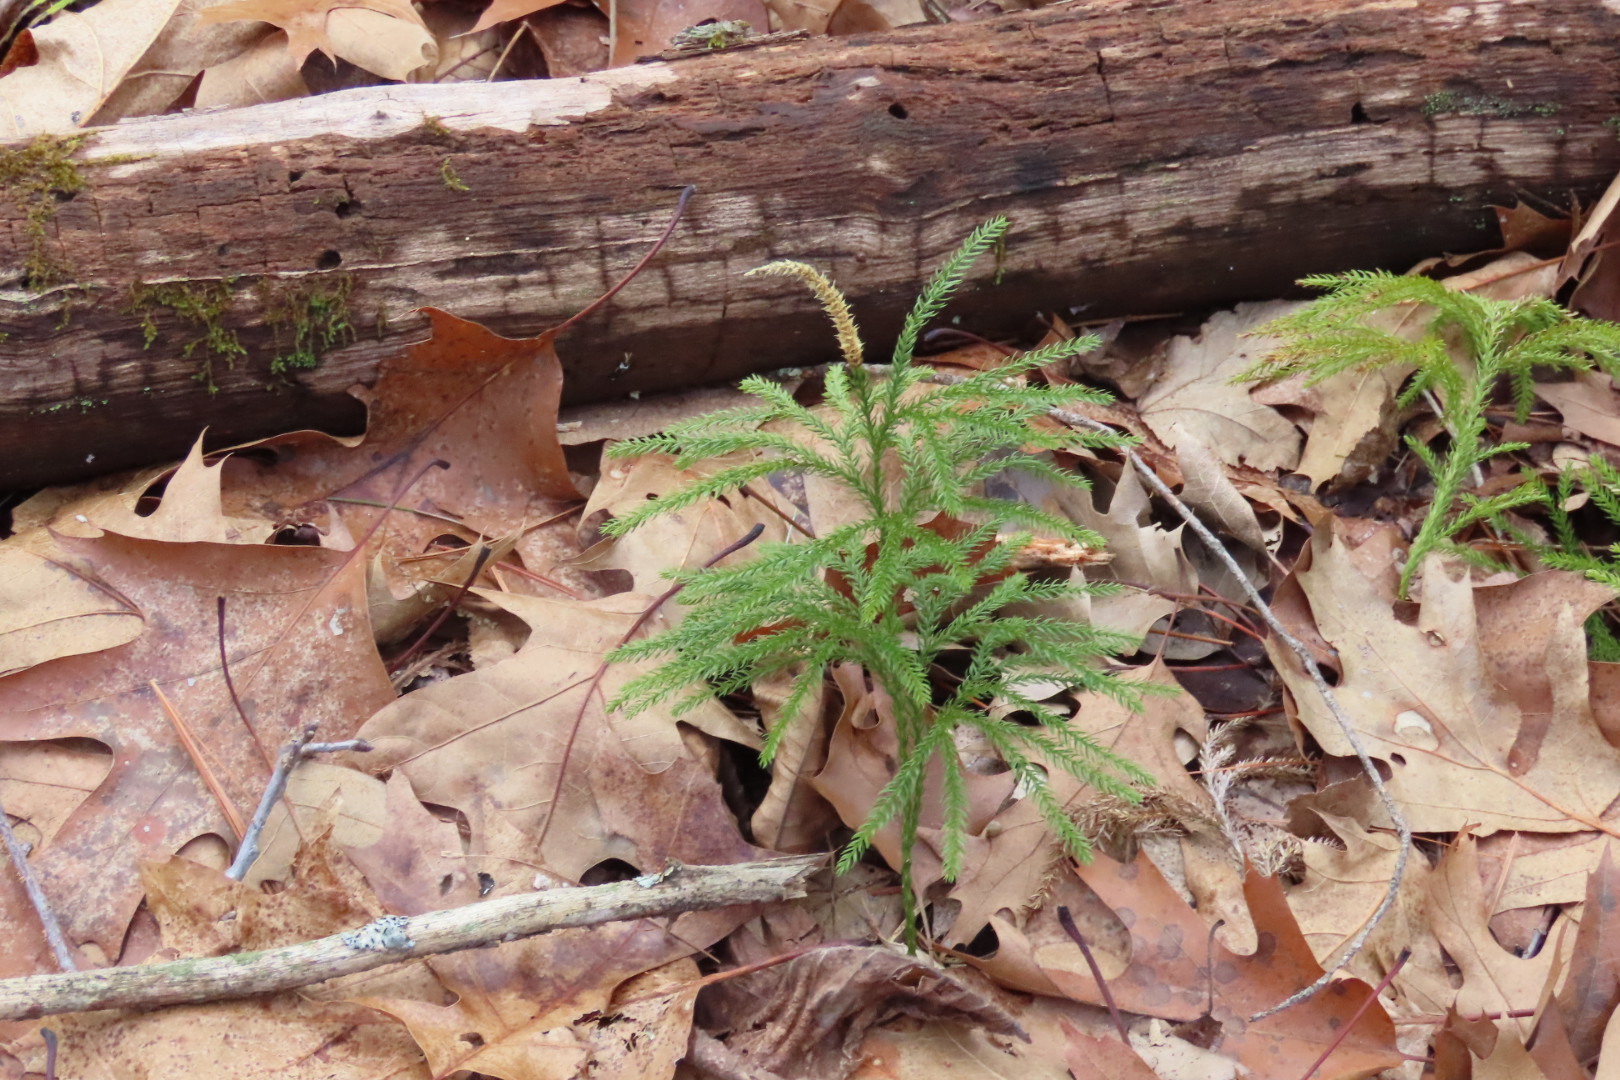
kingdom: Plantae
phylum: Tracheophyta
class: Lycopodiopsida
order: Lycopodiales
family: Lycopodiaceae
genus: Dendrolycopodium
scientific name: Dendrolycopodium obscurum
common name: Common ground-pine
